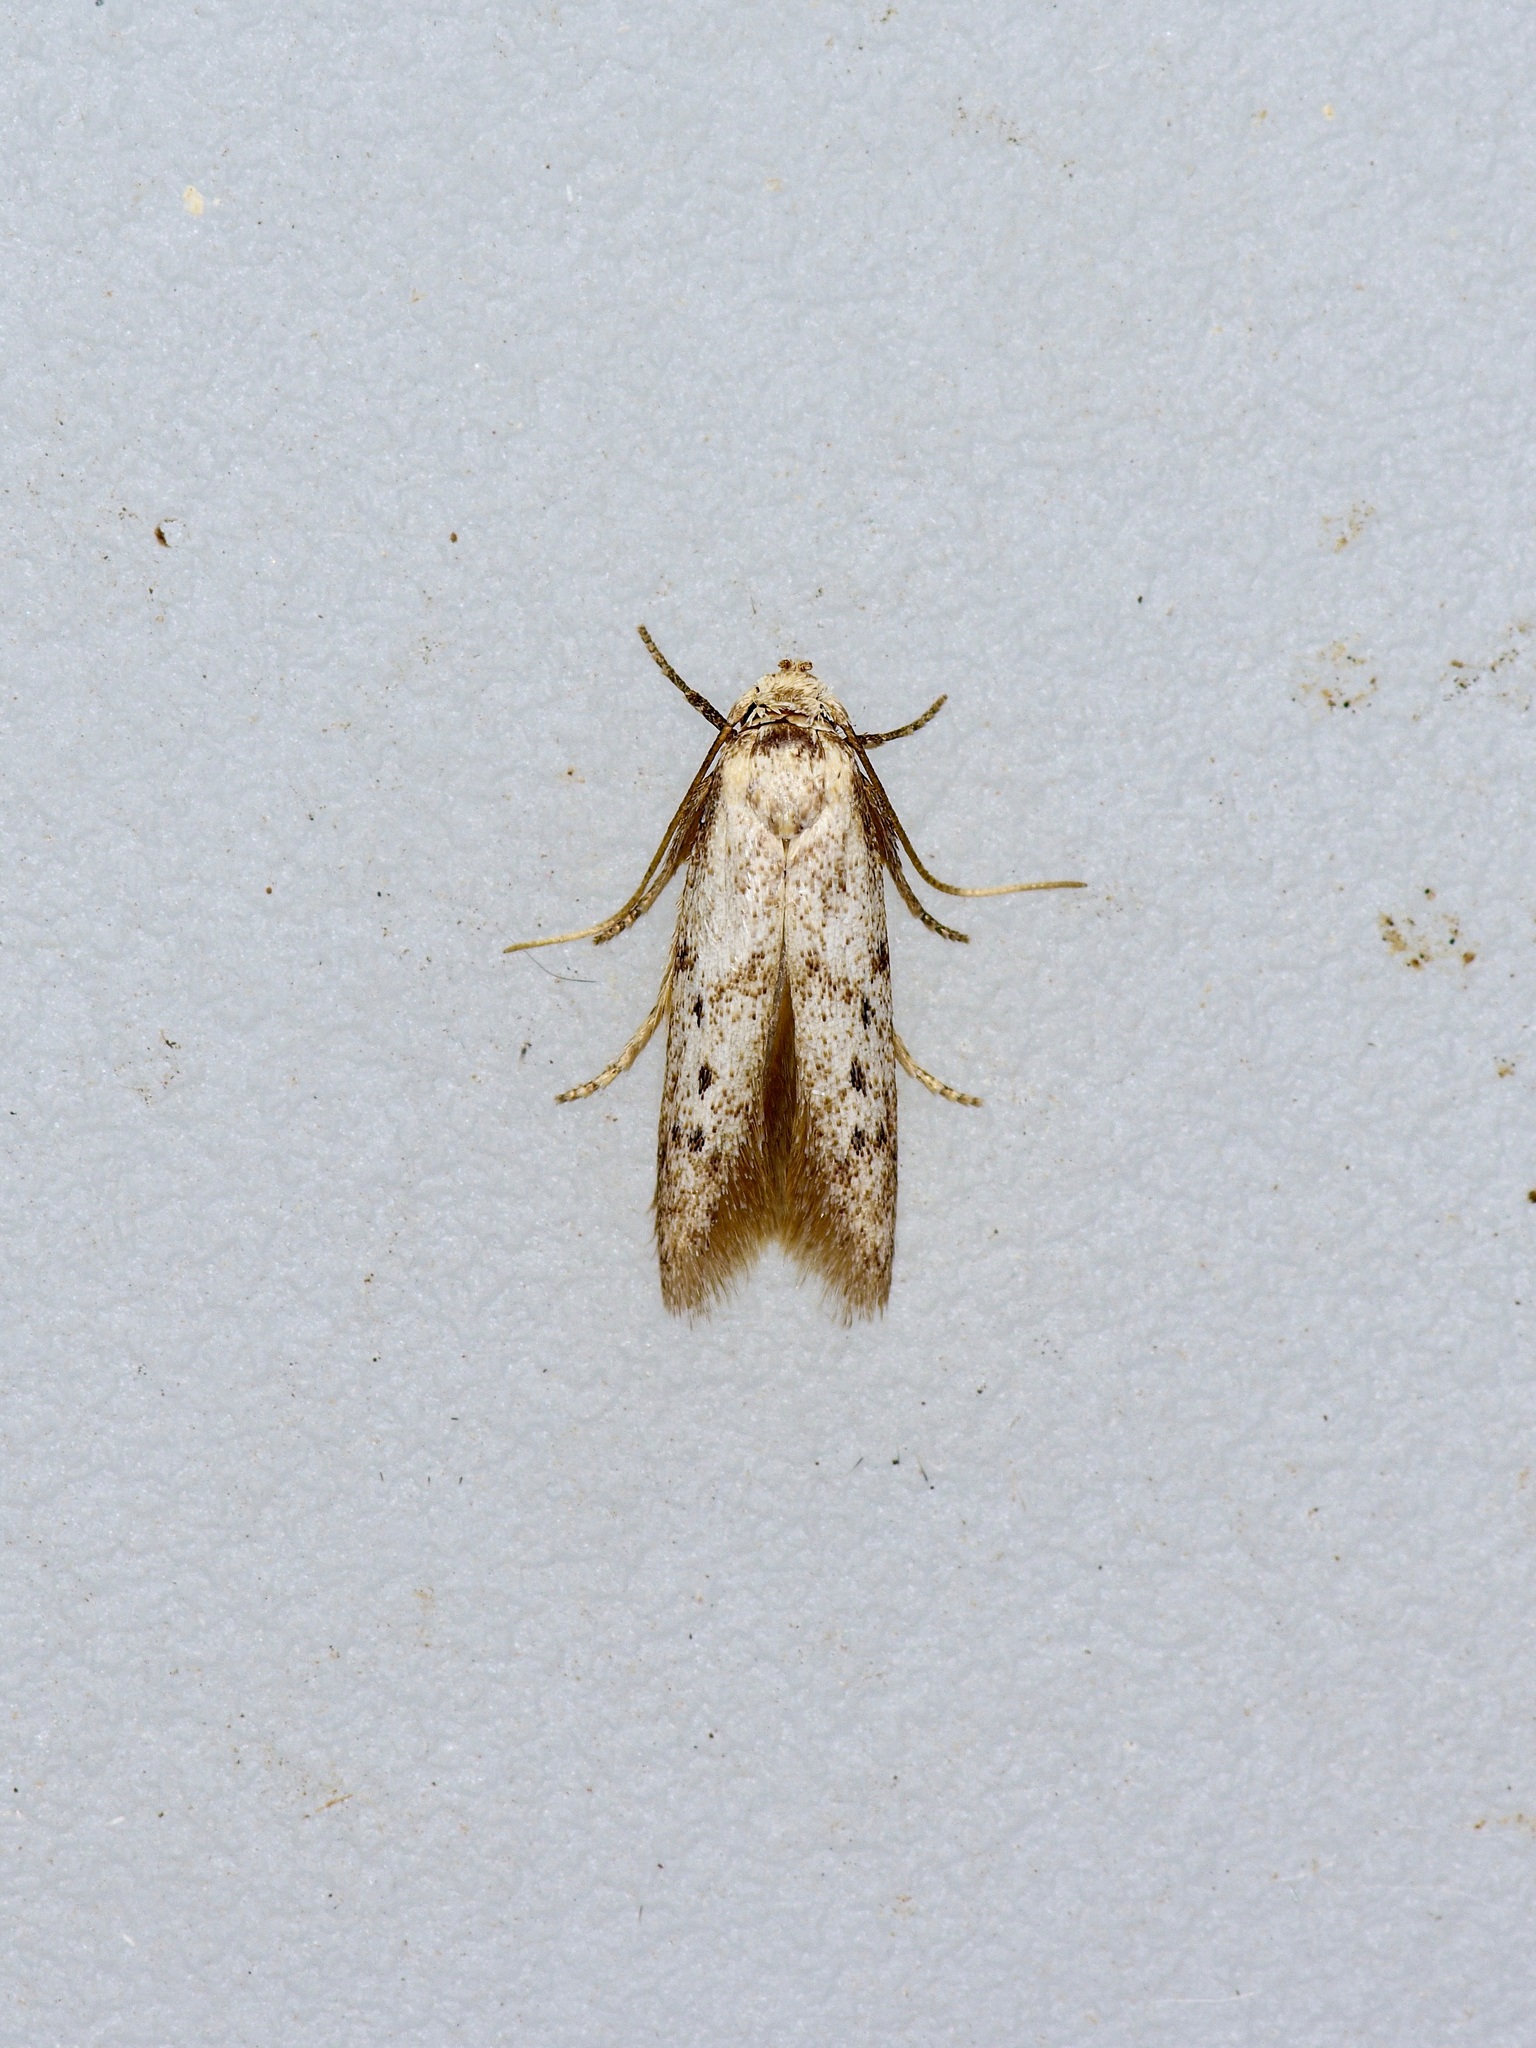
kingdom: Animalia
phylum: Arthropoda
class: Insecta
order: Lepidoptera
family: Blastobasidae
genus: Hypatopa
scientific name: Hypatopa punctiferella
